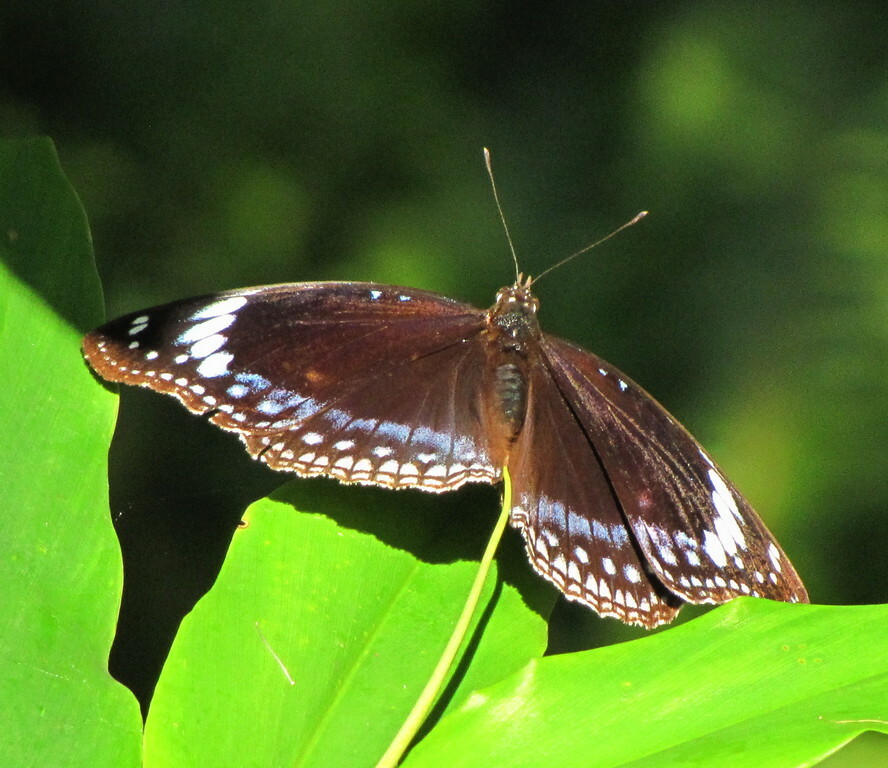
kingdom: Animalia
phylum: Arthropoda
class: Insecta
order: Lepidoptera
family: Nymphalidae
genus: Hypolimnas
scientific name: Hypolimnas alimena
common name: Blue-banded eggfly
